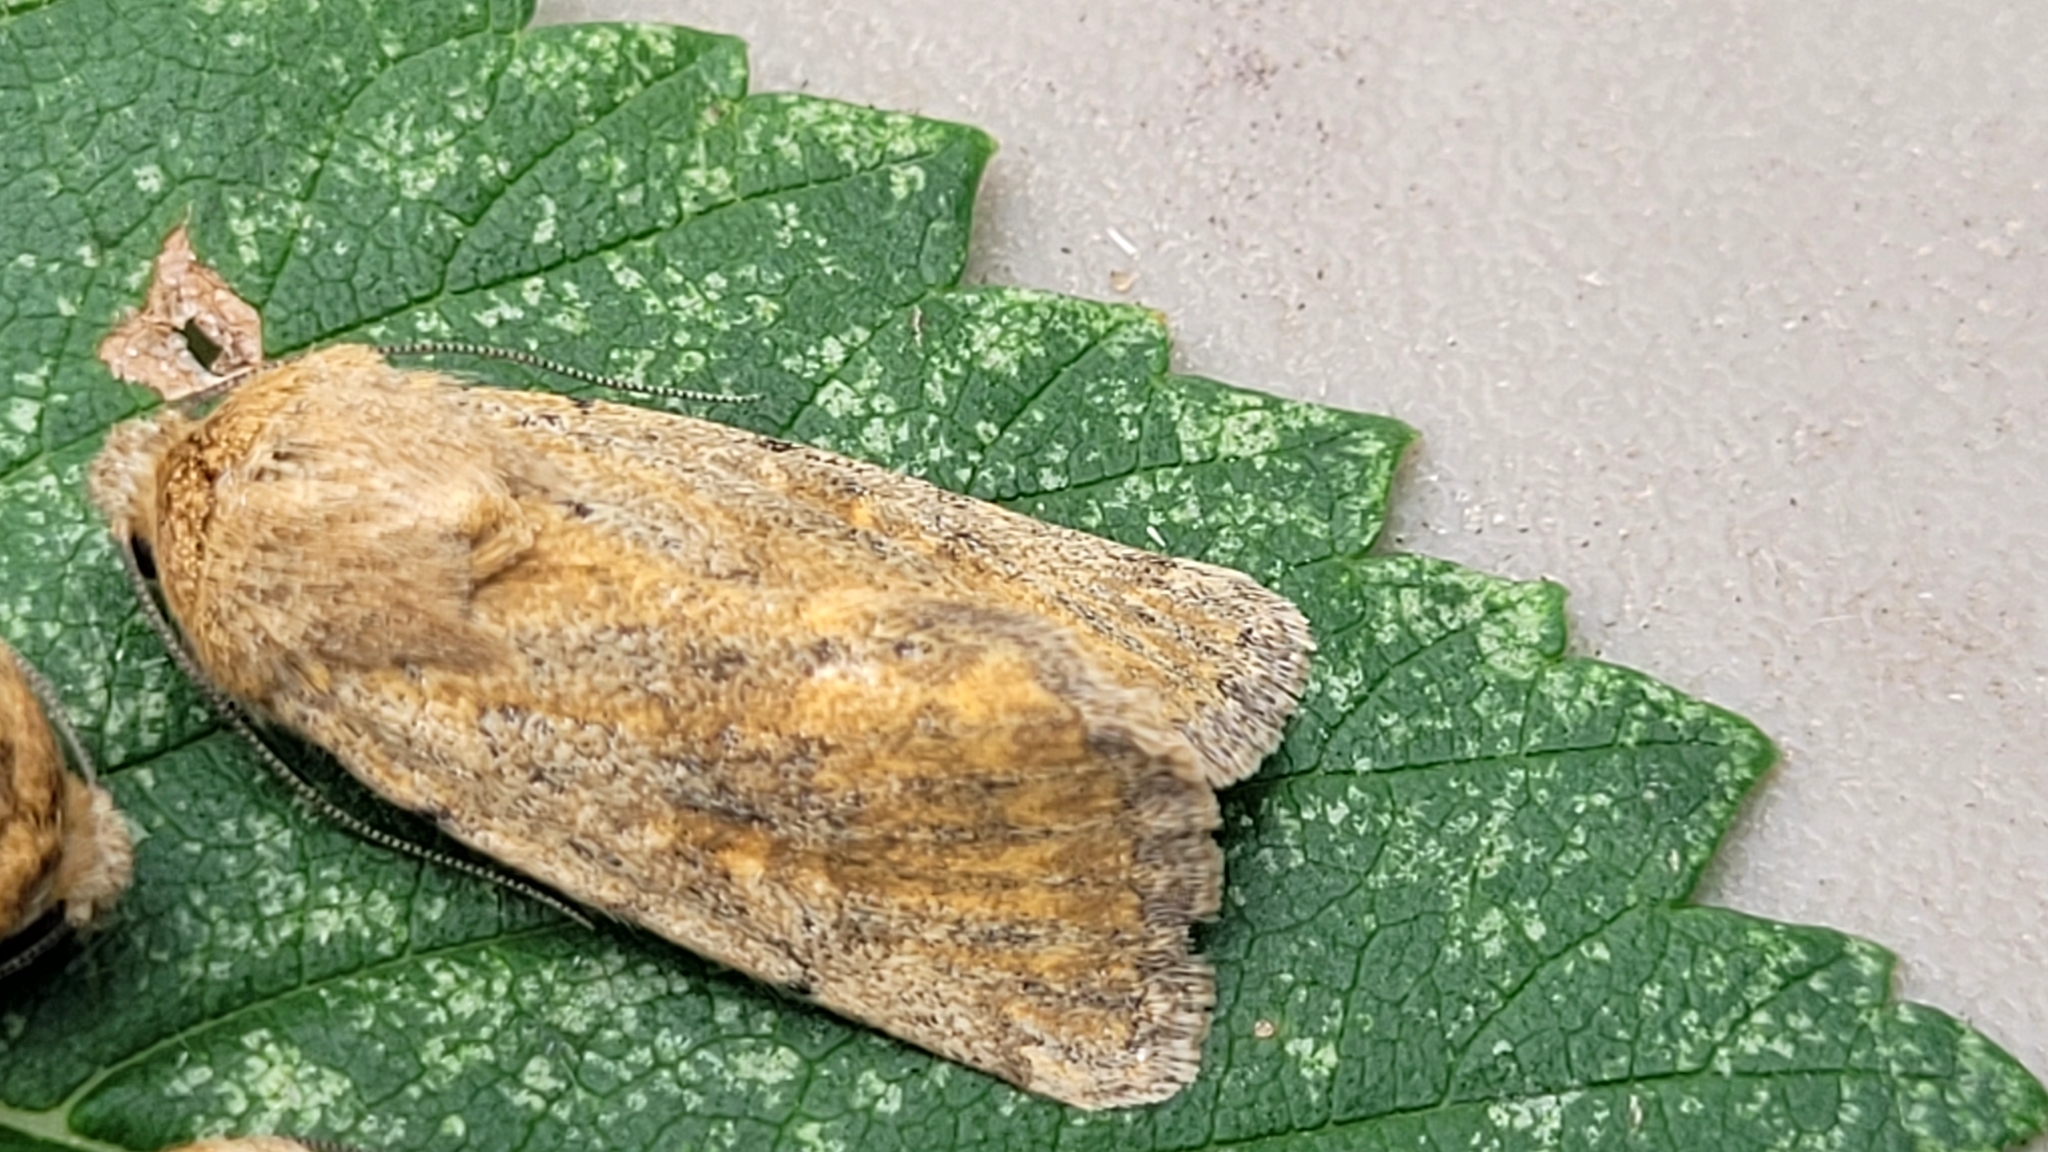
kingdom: Animalia
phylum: Arthropoda
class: Insecta
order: Lepidoptera
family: Noctuidae
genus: Sympistis
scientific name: Sympistis regina
